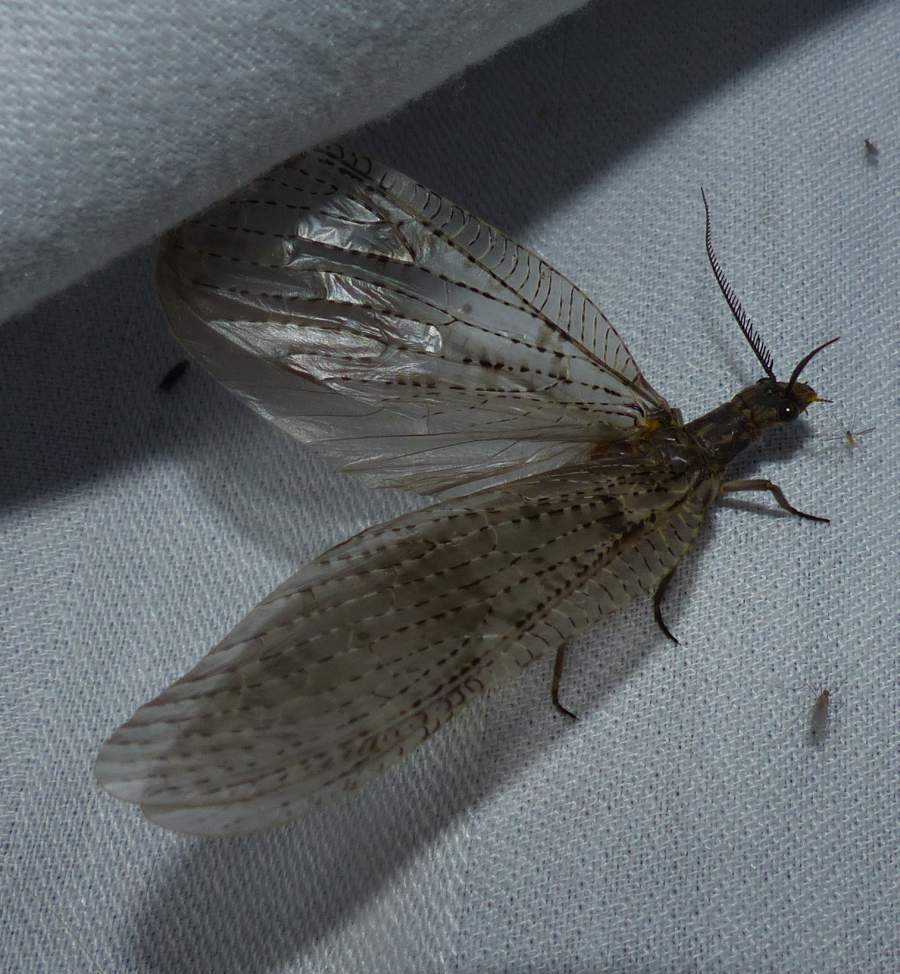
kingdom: Animalia
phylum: Arthropoda
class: Insecta
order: Megaloptera
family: Corydalidae
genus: Chauliodes
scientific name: Chauliodes pectinicornis
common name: Summer fishfly
